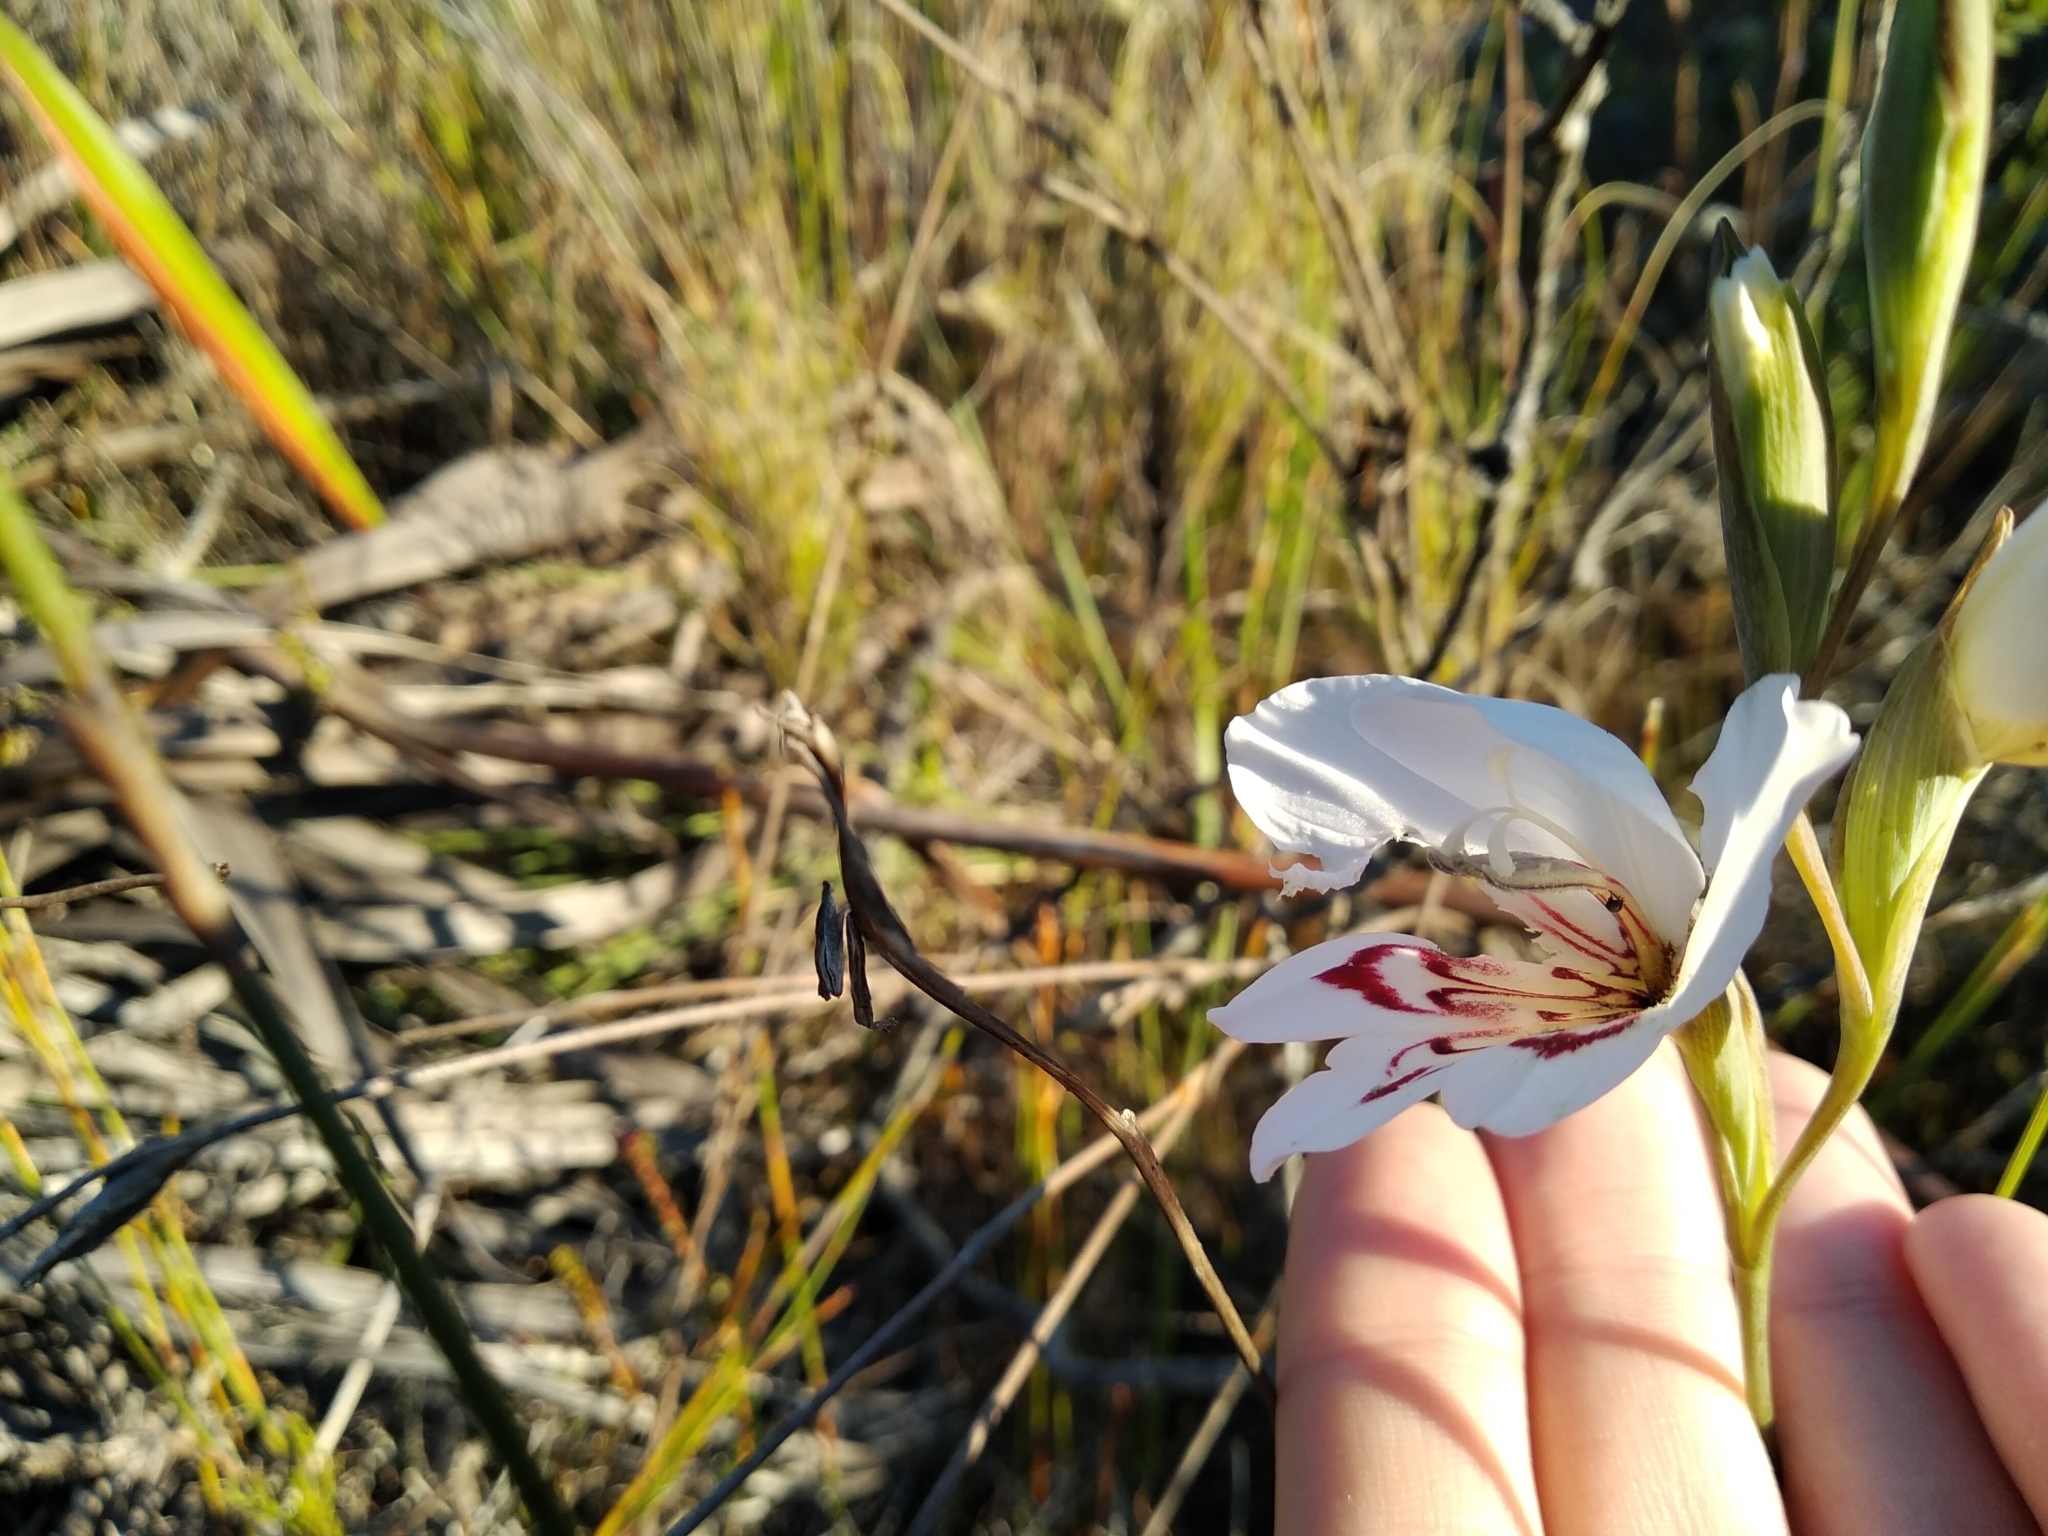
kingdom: Plantae
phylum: Tracheophyta
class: Liliopsida
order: Asparagales
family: Iridaceae
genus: Gladiolus
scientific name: Gladiolus debilis
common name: Painted-lady
